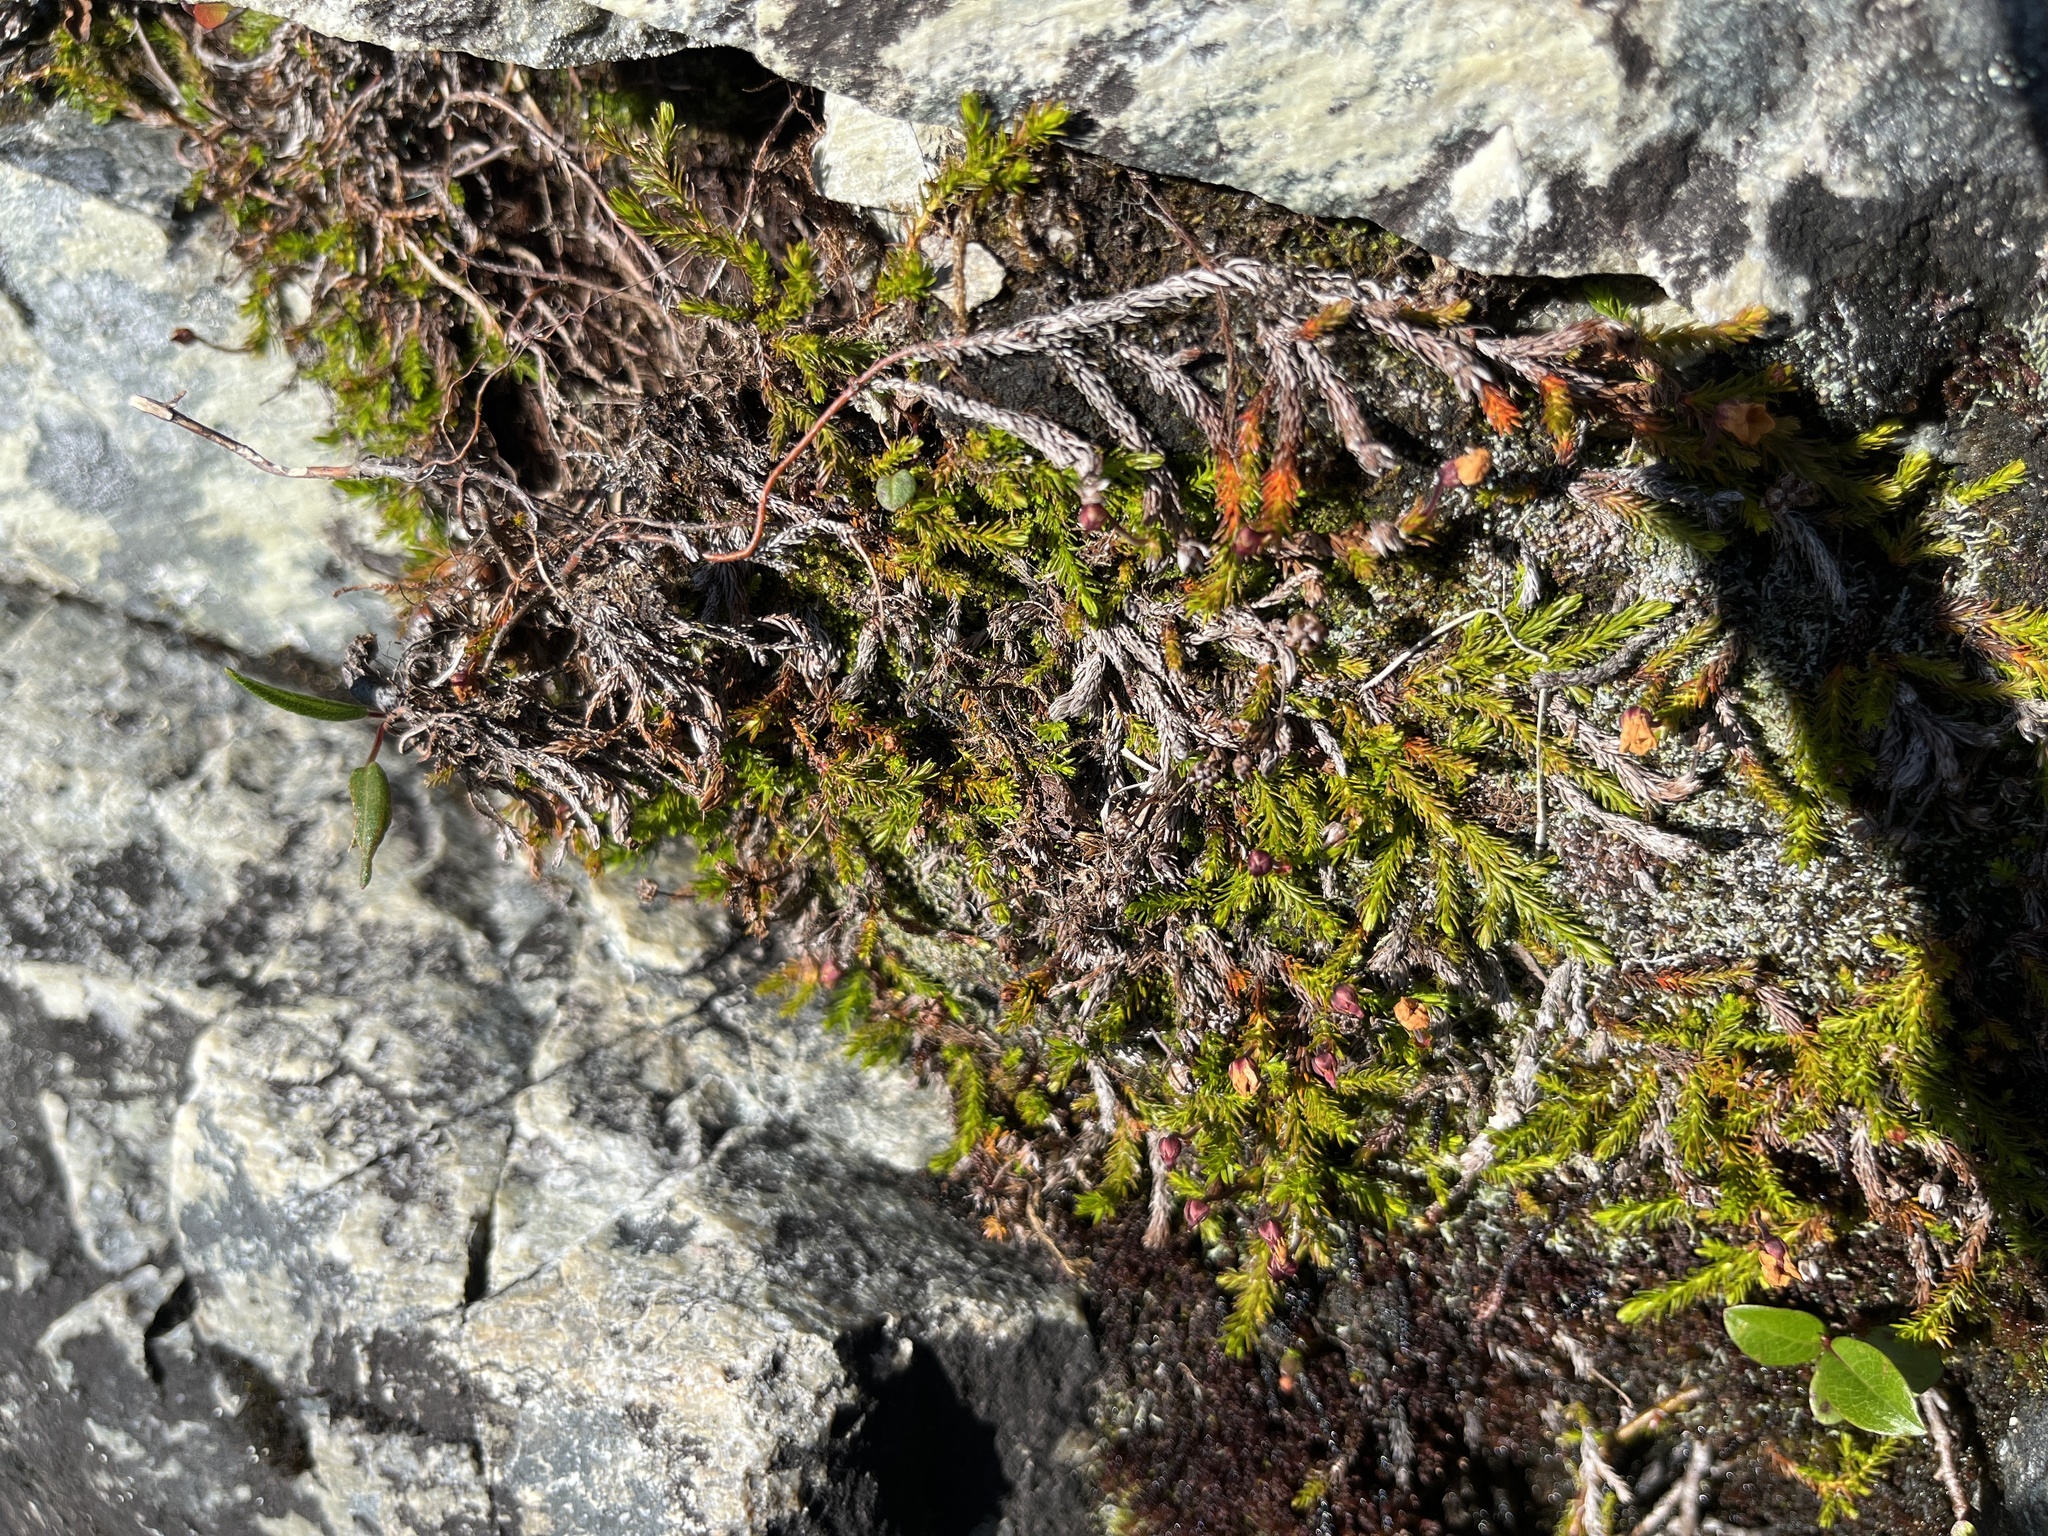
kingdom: Plantae
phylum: Tracheophyta
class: Magnoliopsida
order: Ericales
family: Ericaceae
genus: Harrimanella
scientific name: Harrimanella hypnoides
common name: Moss bell heather
